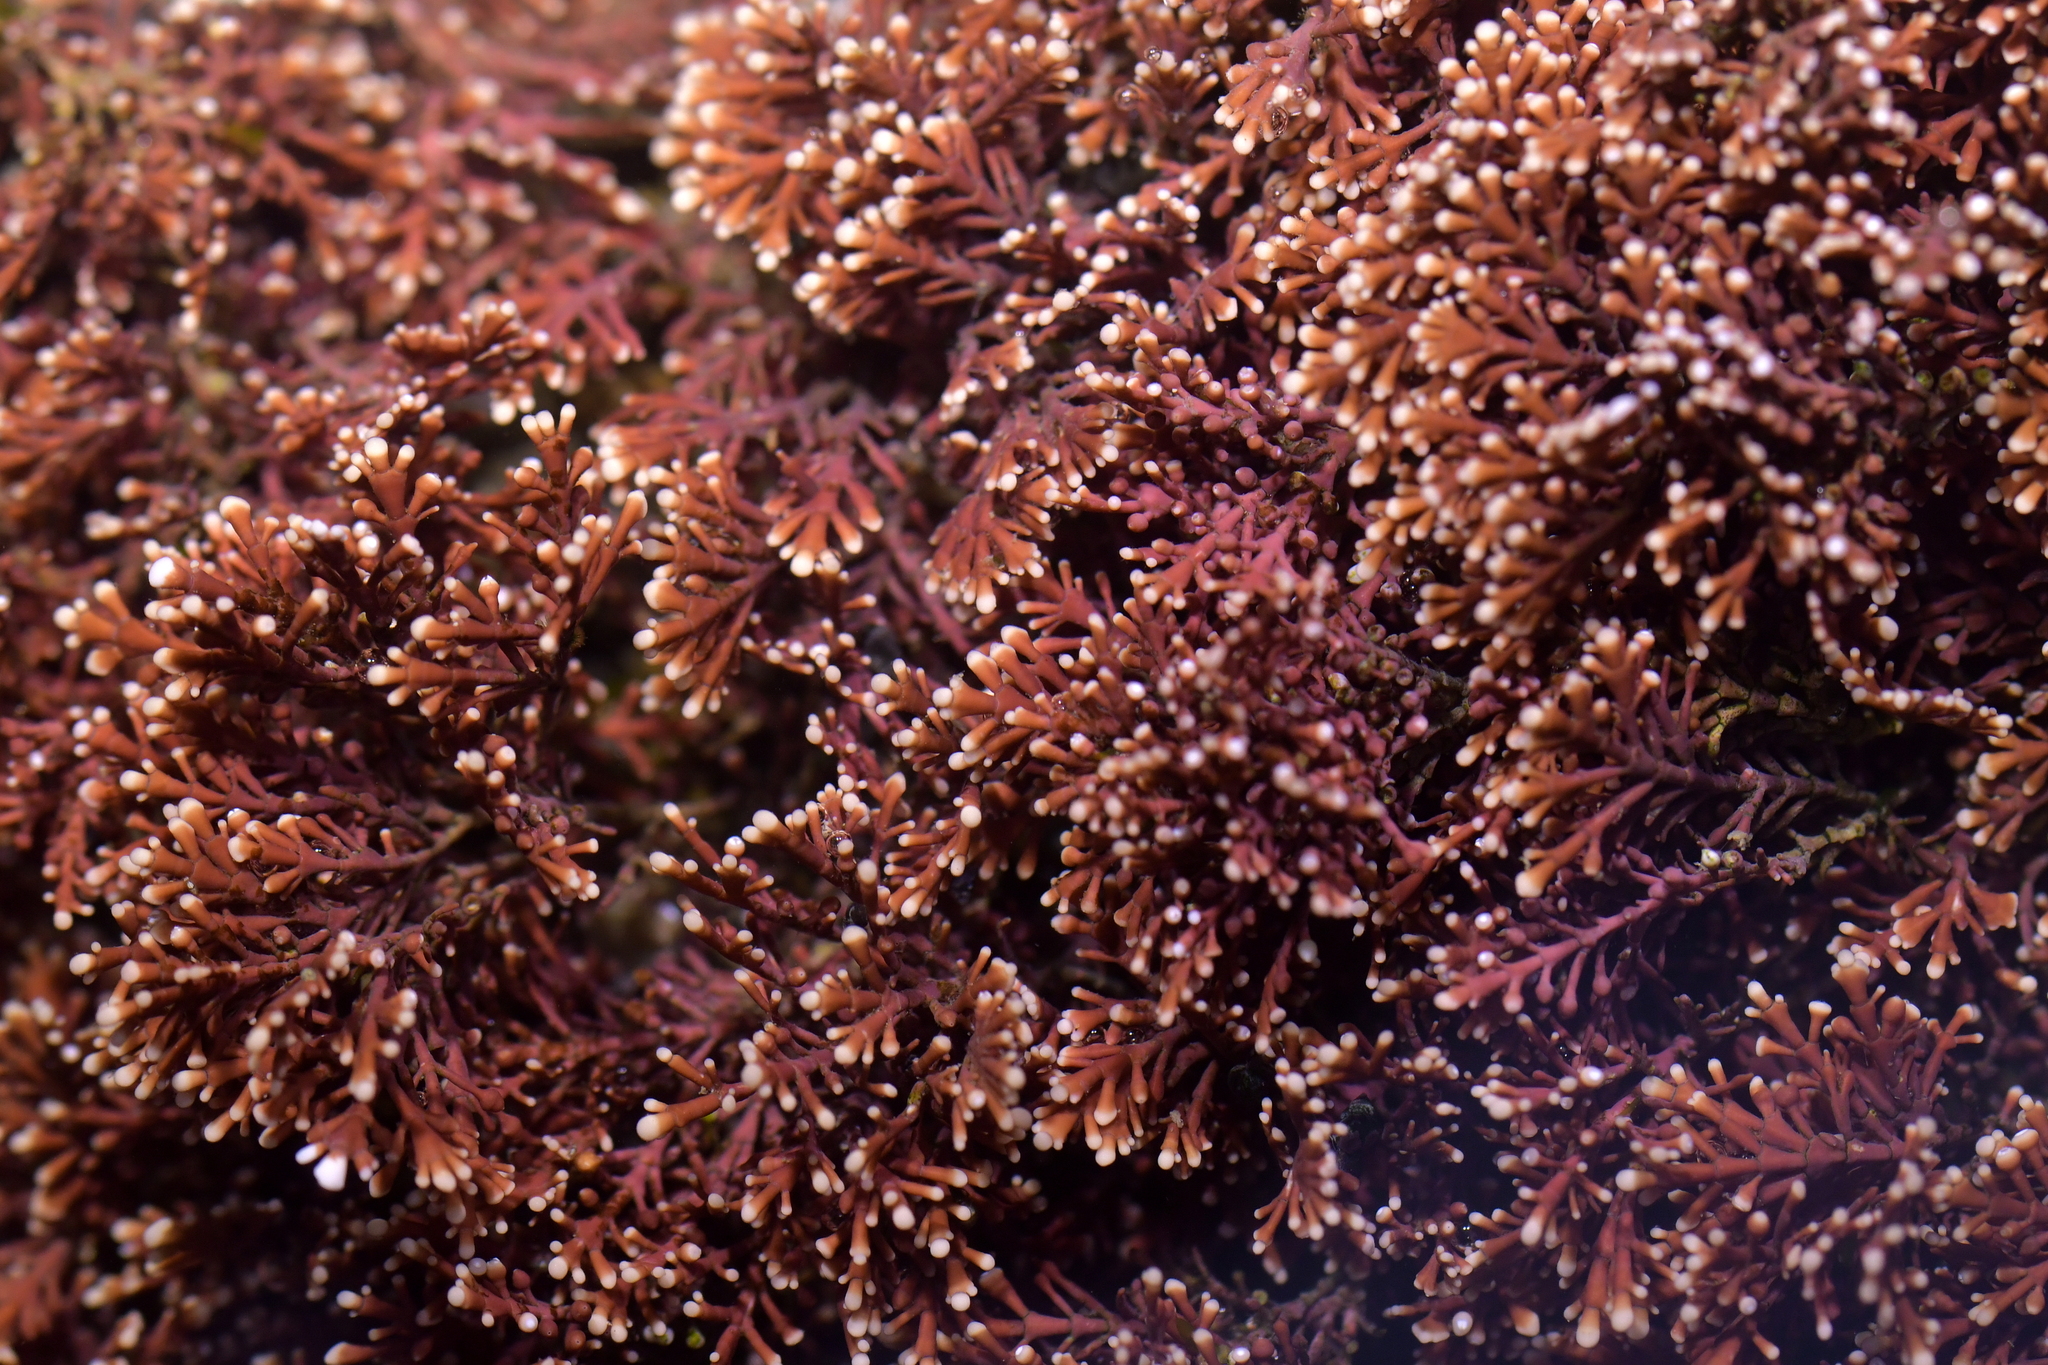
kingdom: Plantae
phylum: Rhodophyta
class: Florideophyceae
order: Corallinales
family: Corallinaceae
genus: Corallina
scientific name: Corallina officinalis
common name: Coral weed
